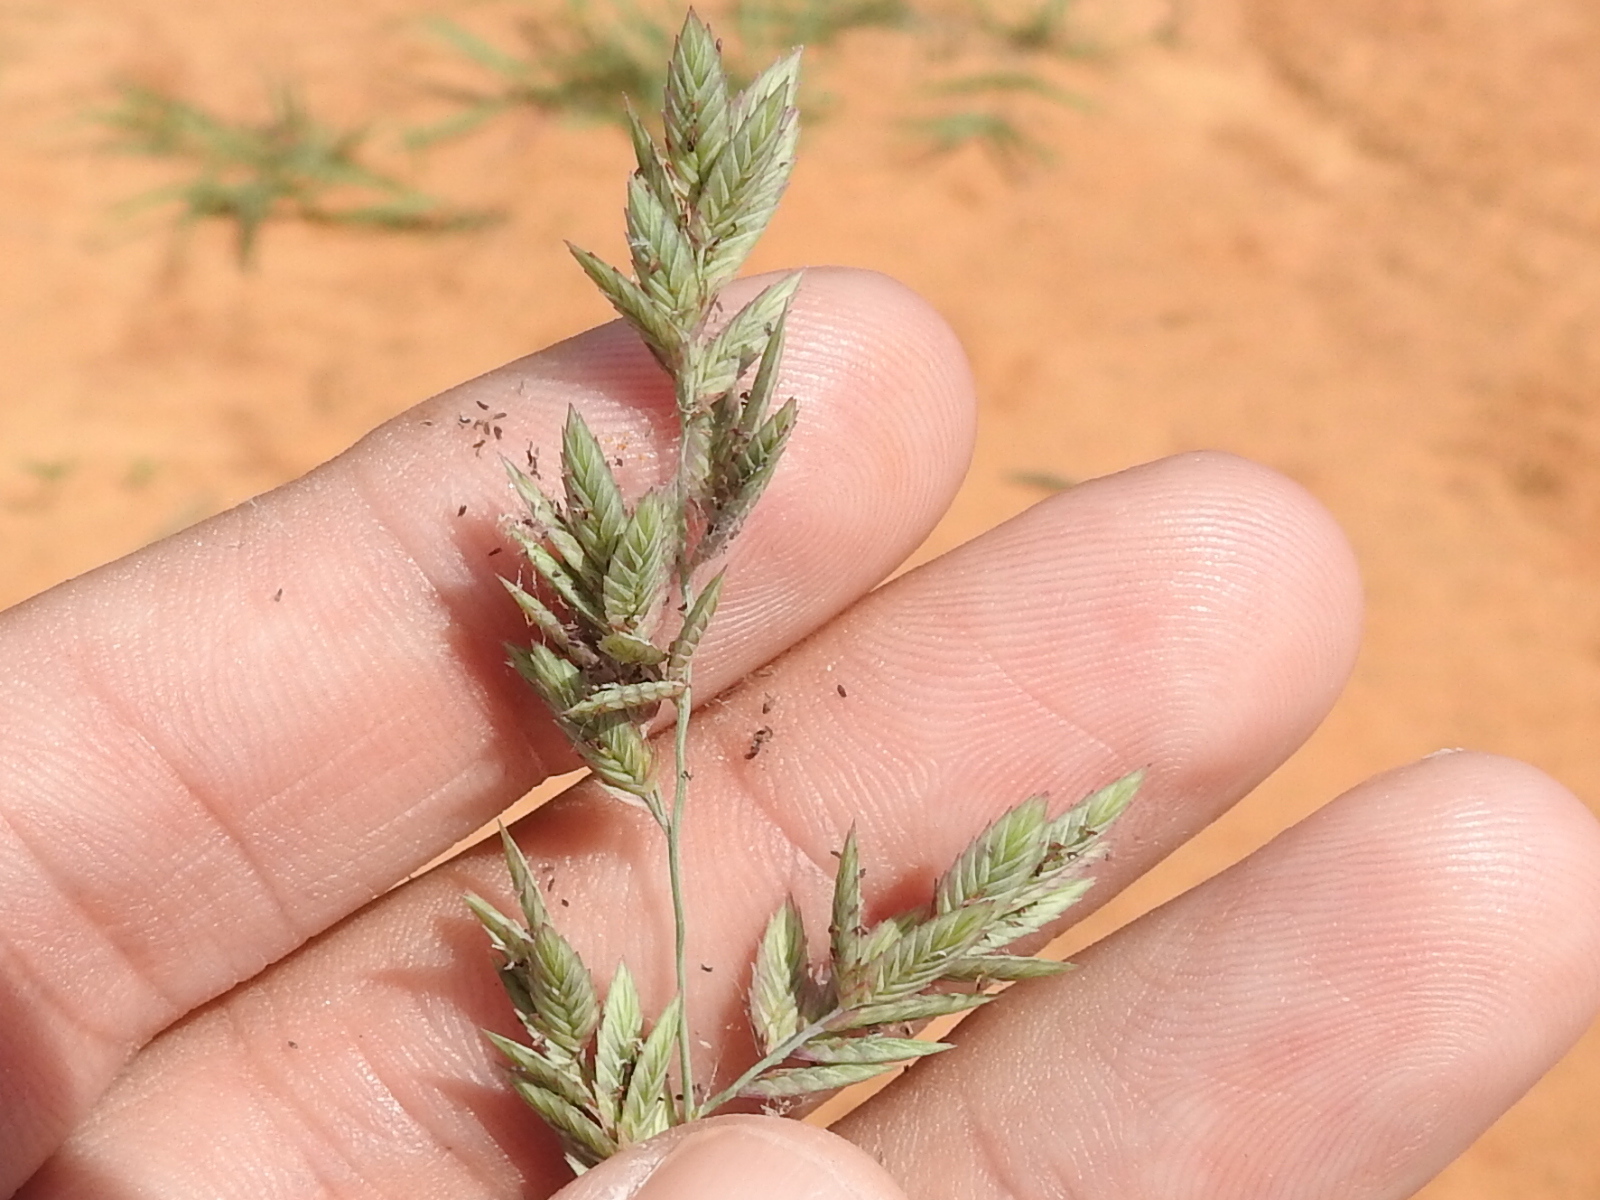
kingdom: Plantae
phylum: Tracheophyta
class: Liliopsida
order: Poales
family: Poaceae
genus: Eragrostis
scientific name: Eragrostis secundiflora
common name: Red love grass
